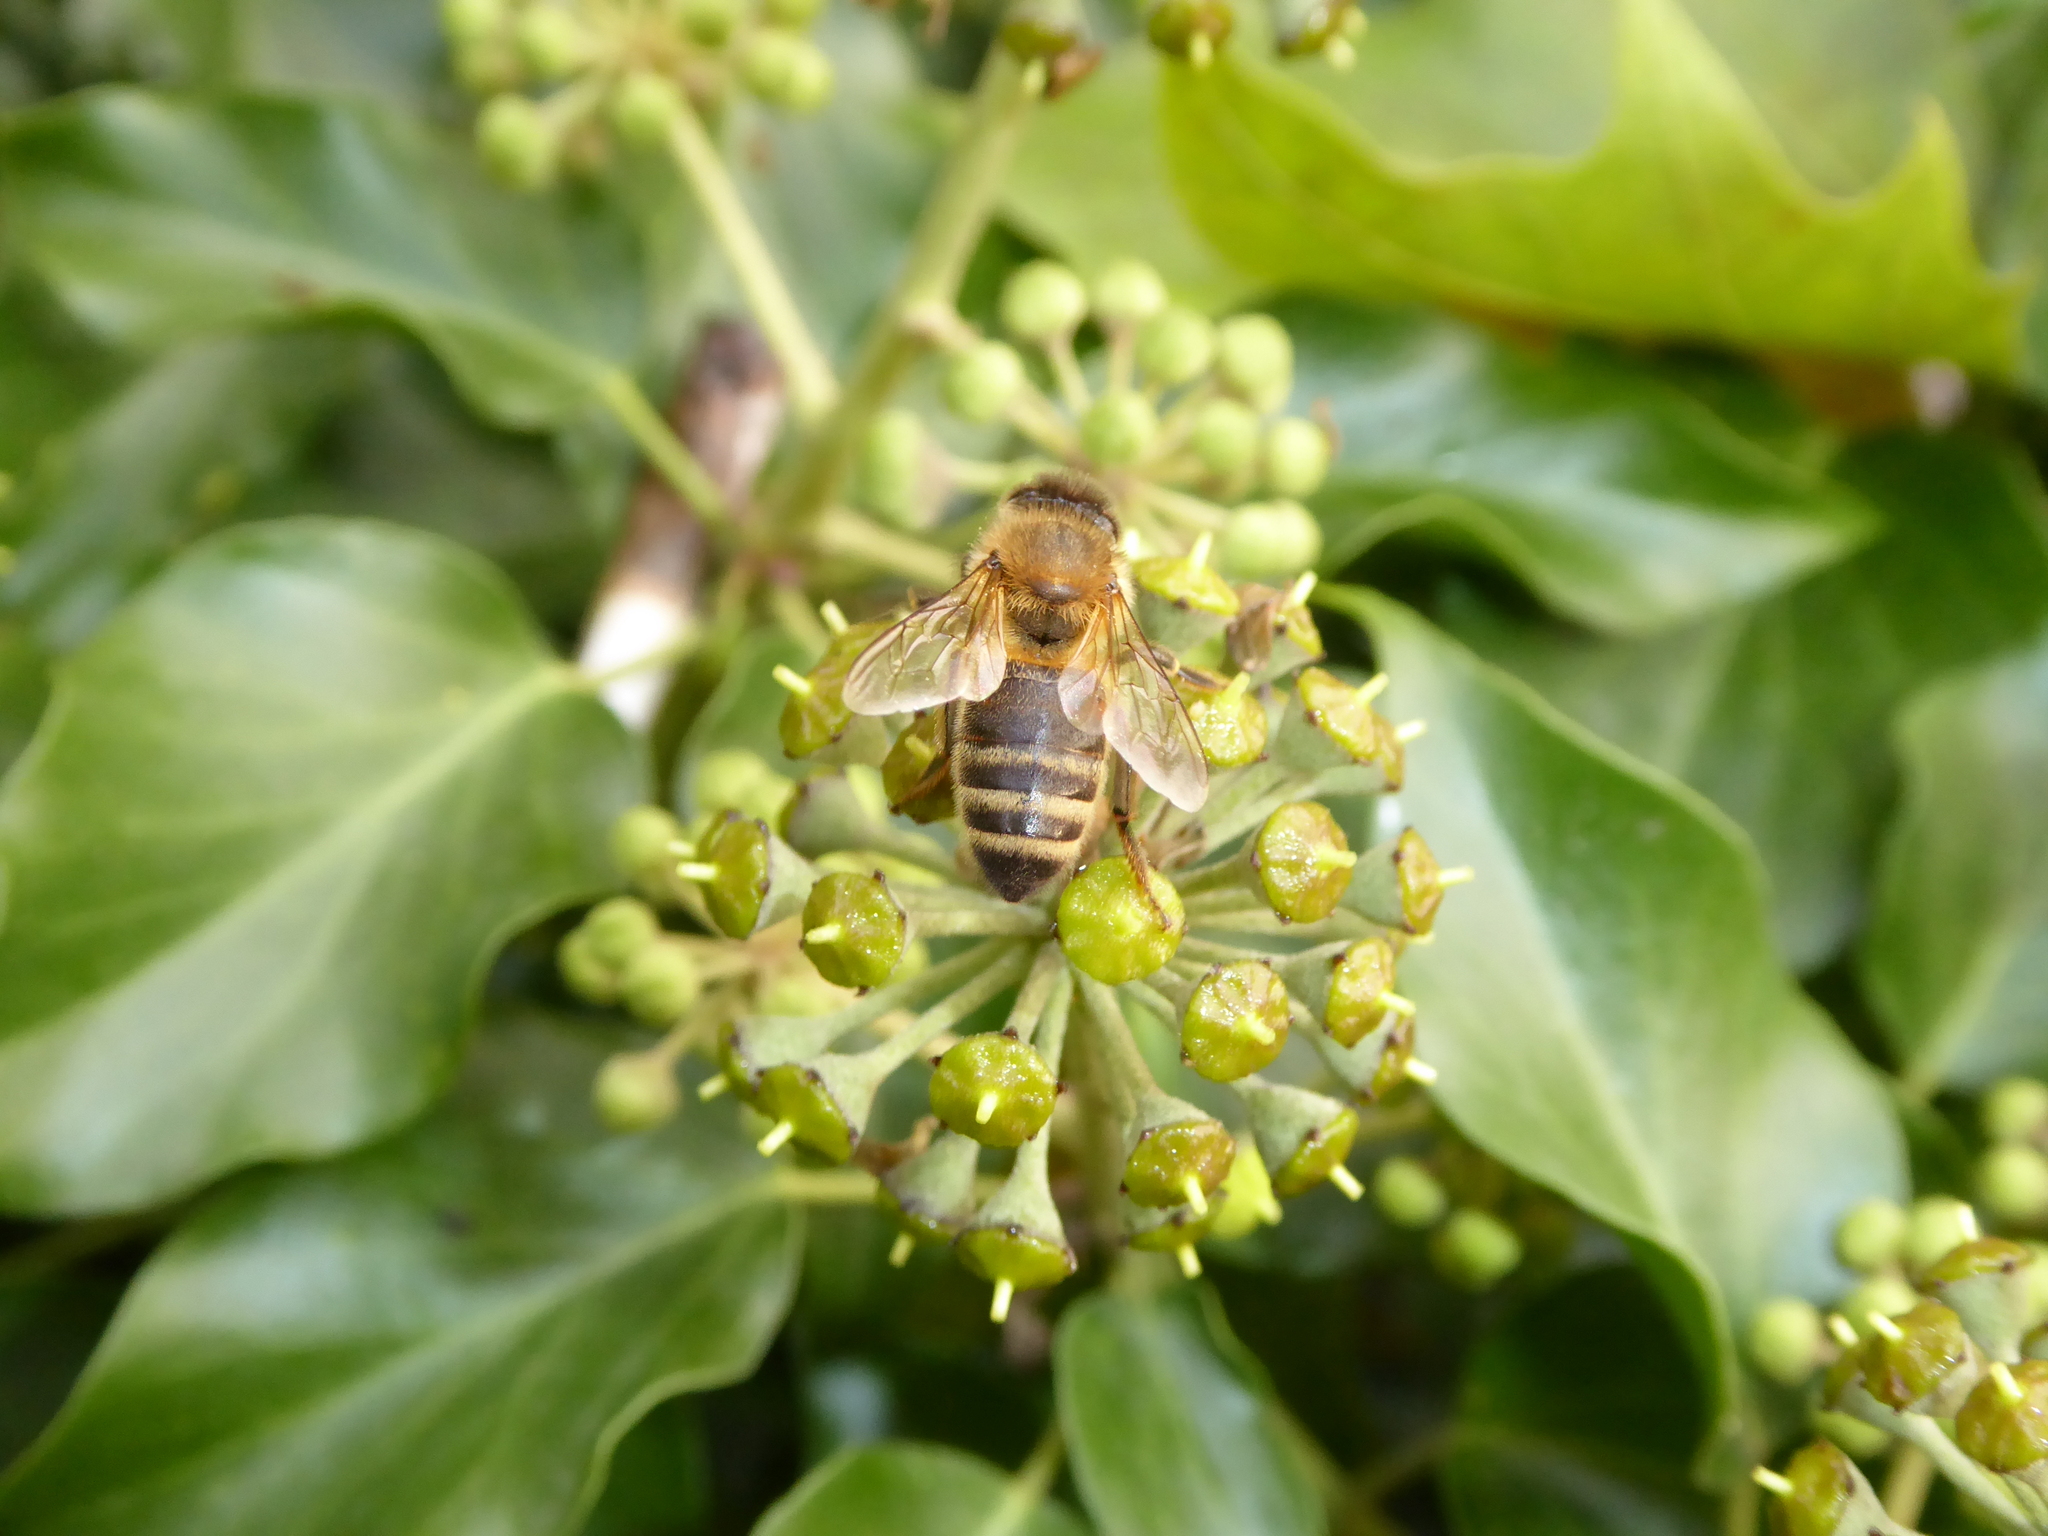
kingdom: Animalia
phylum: Arthropoda
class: Insecta
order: Hymenoptera
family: Apidae
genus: Apis
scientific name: Apis mellifera
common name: Honey bee
